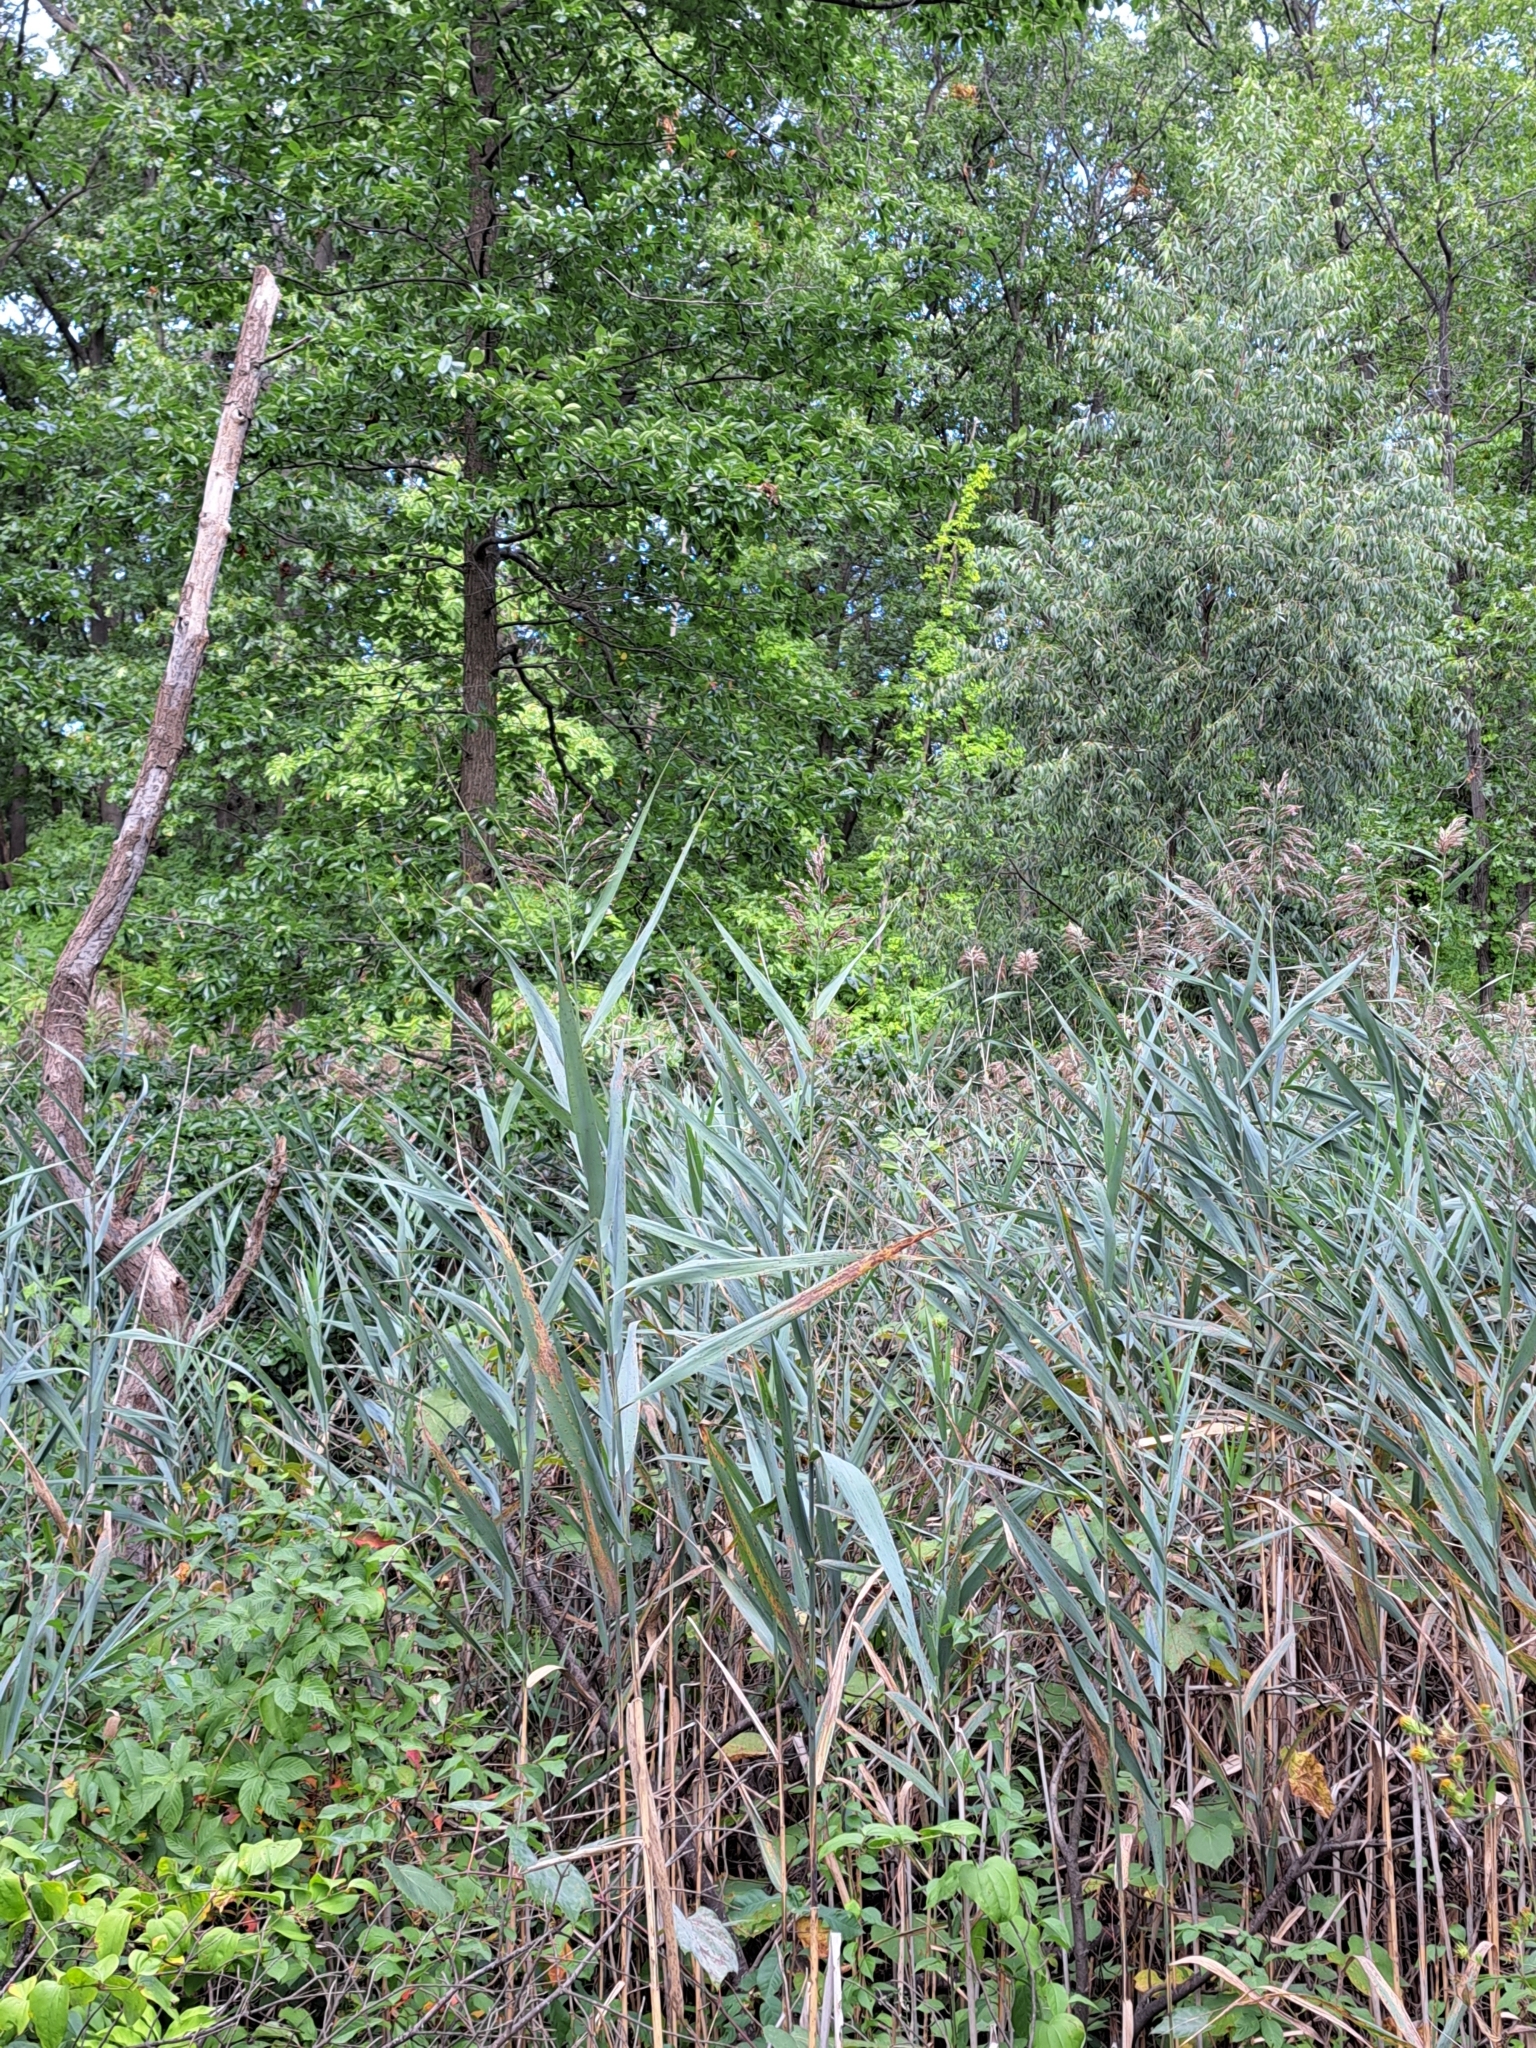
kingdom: Plantae
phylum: Tracheophyta
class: Liliopsida
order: Poales
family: Poaceae
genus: Phragmites
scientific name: Phragmites australis
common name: Common reed
